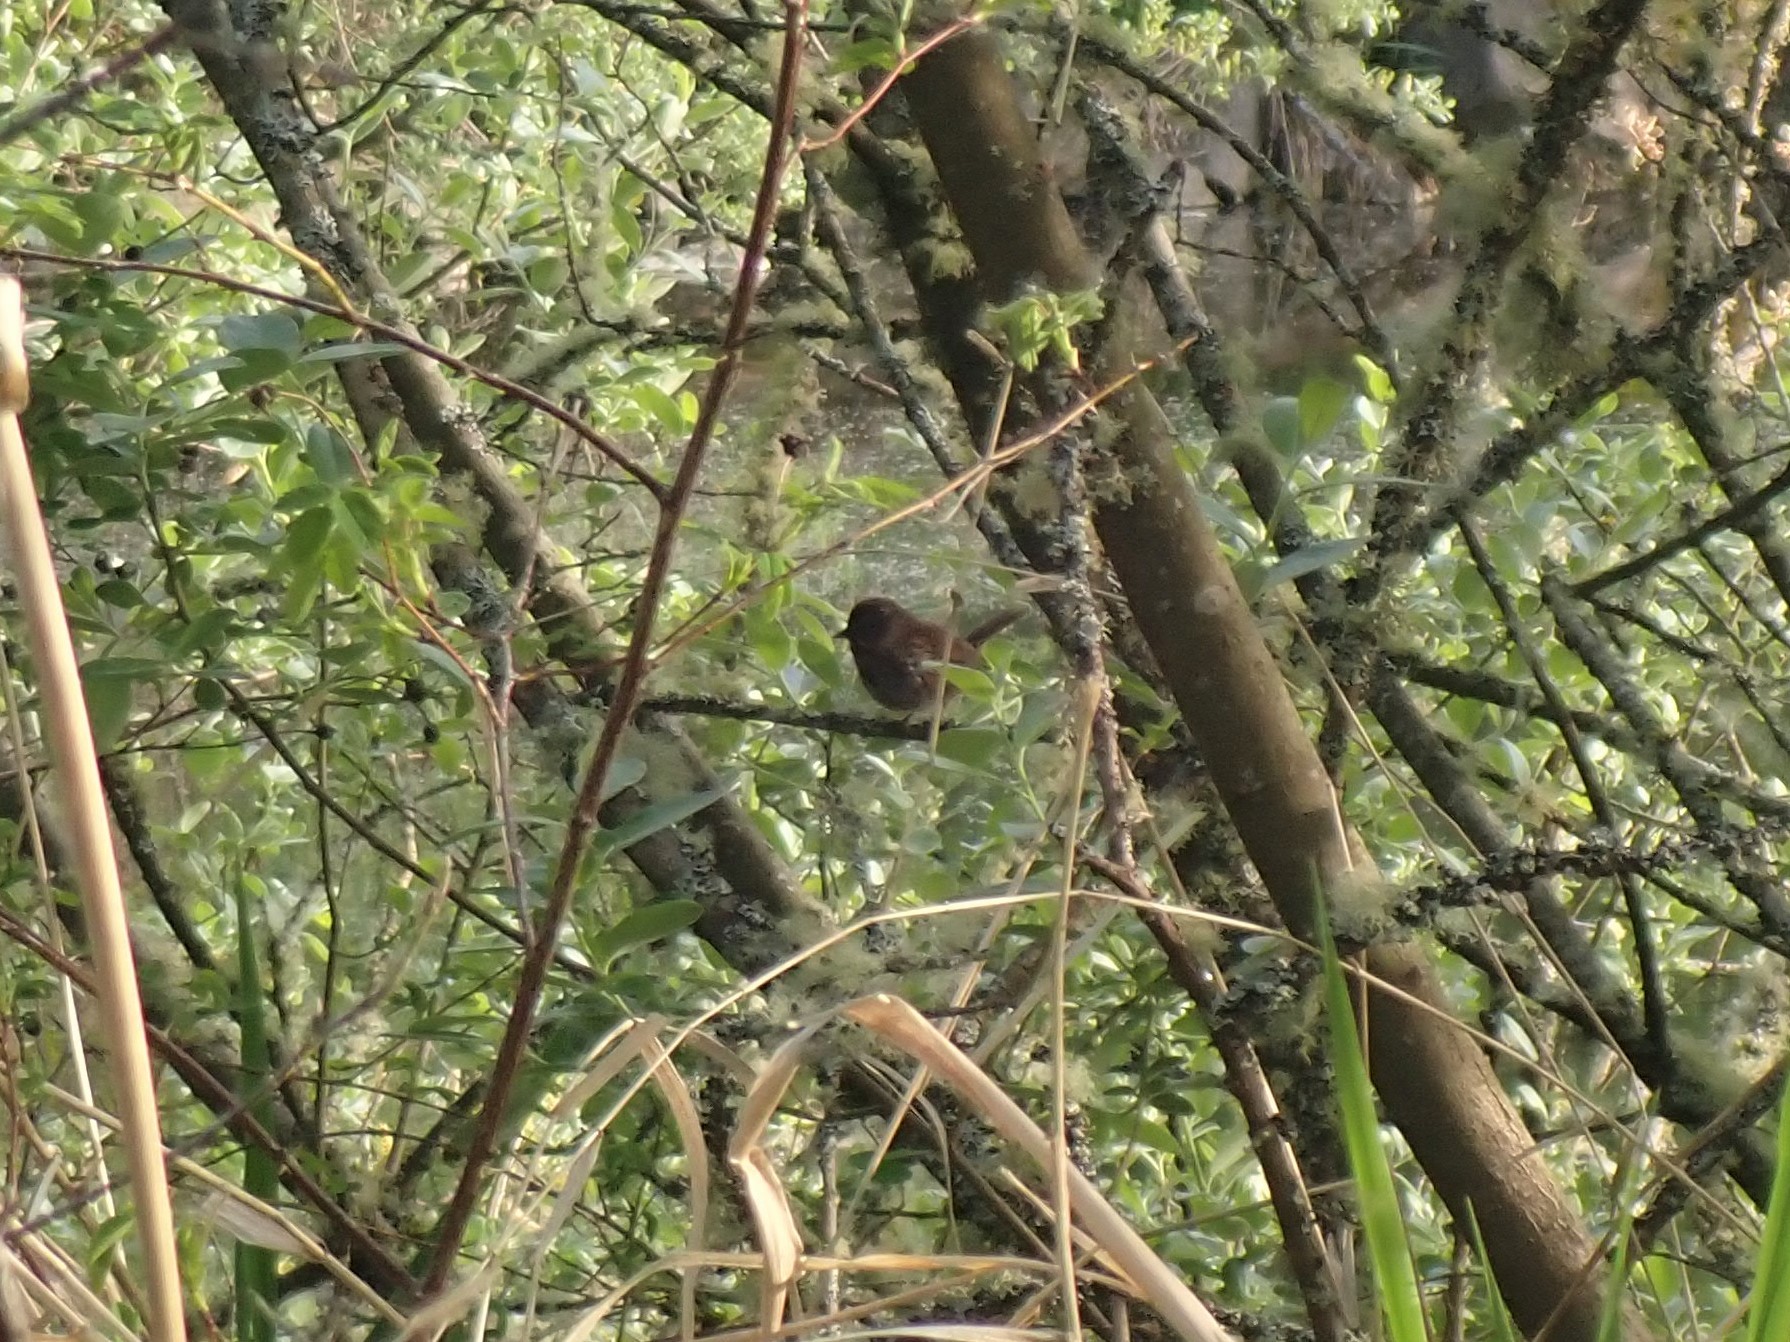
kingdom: Animalia
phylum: Chordata
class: Aves
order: Passeriformes
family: Passerellidae
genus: Melospiza
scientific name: Melospiza melodia
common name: Song sparrow
